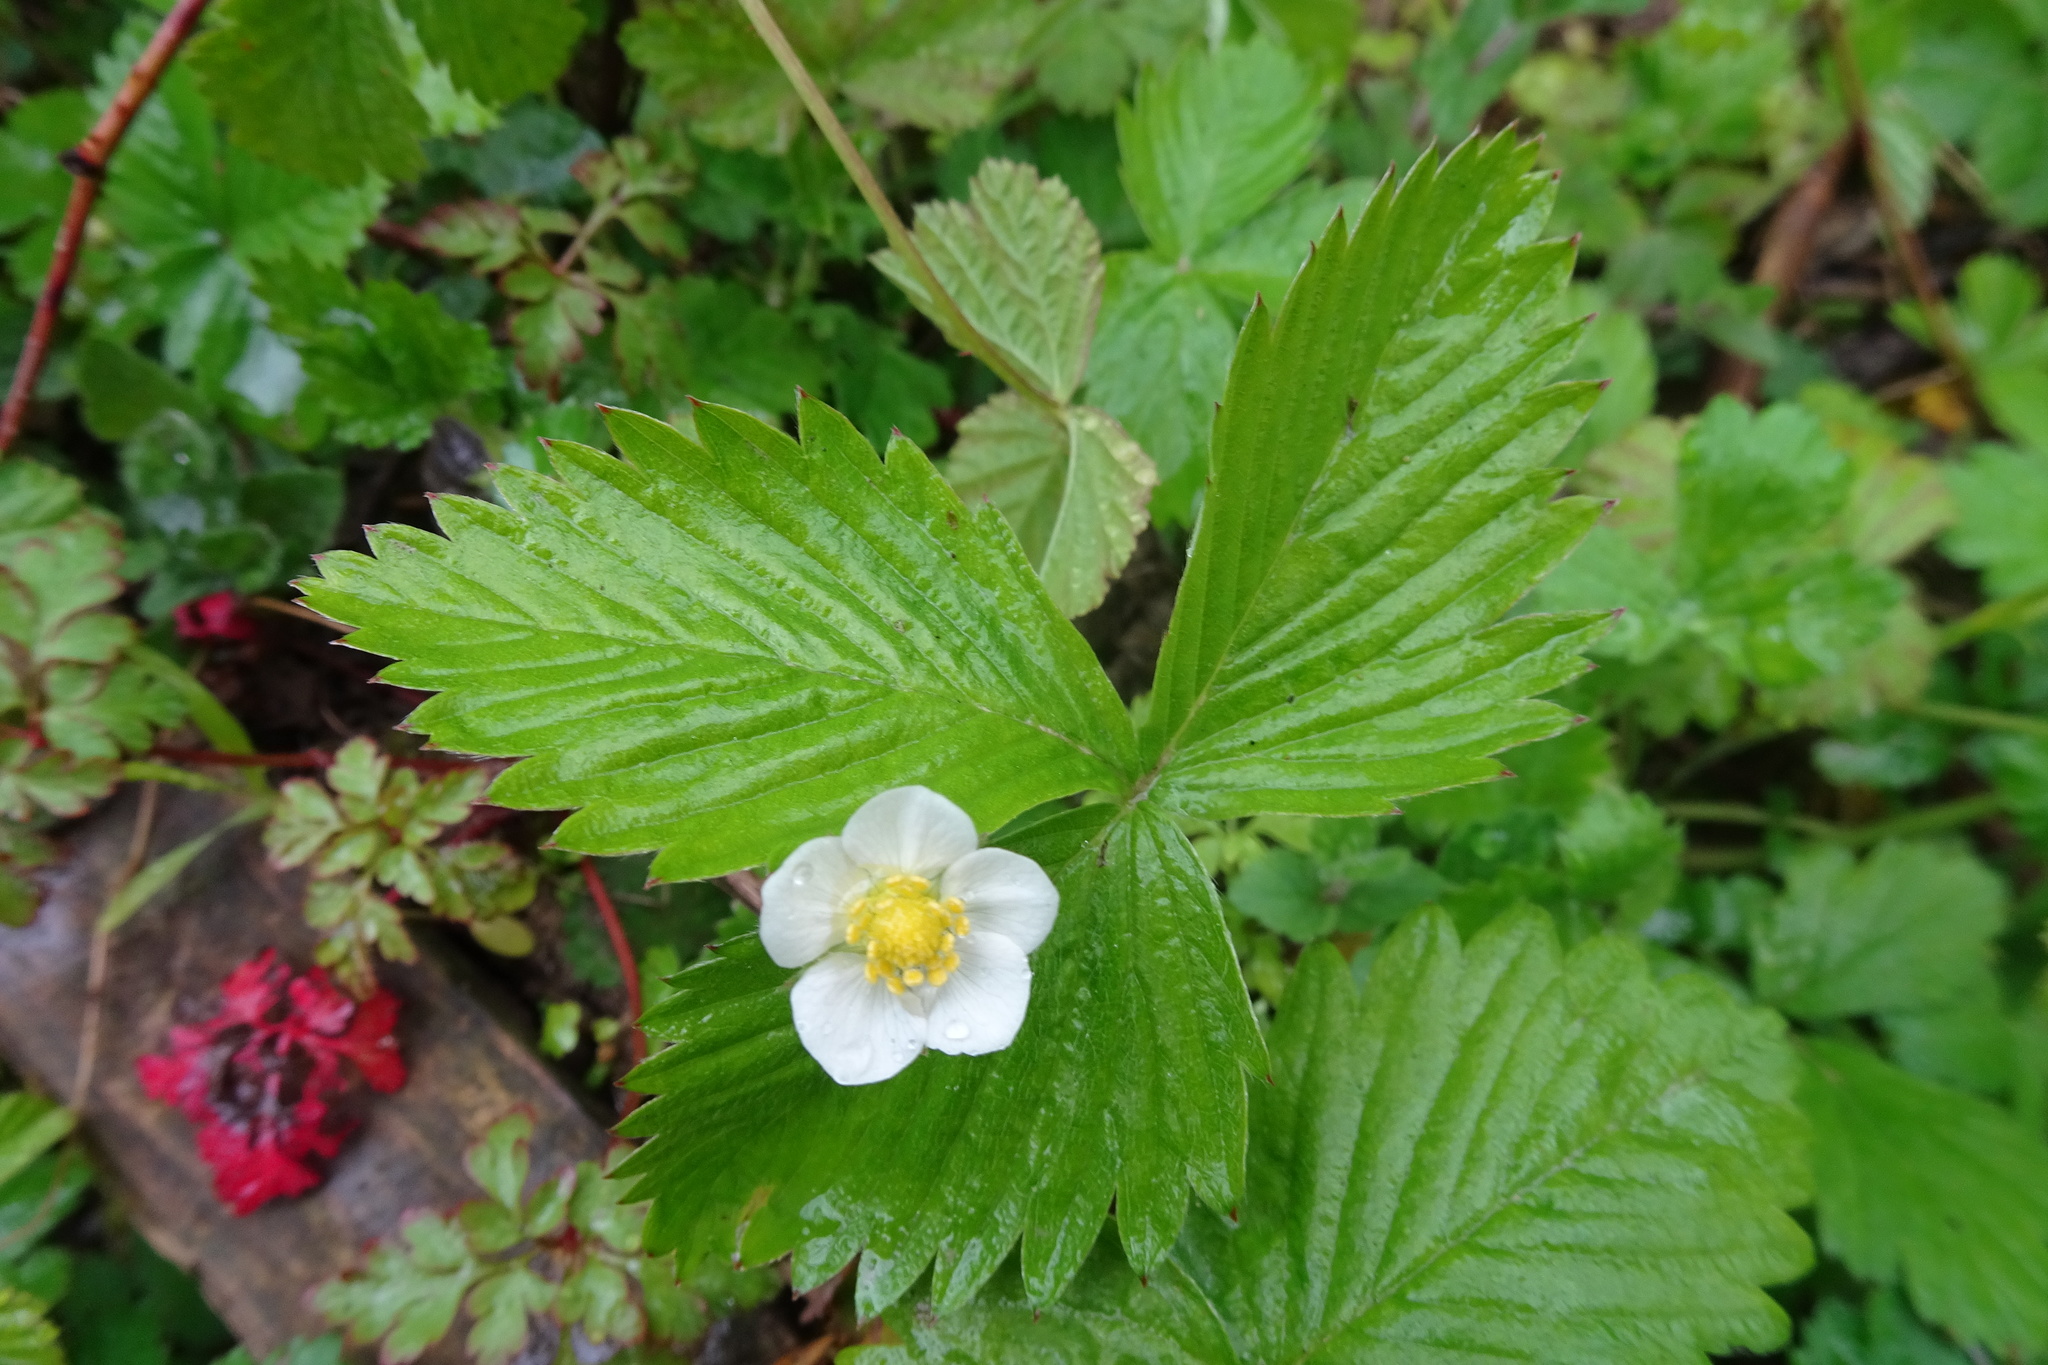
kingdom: Plantae
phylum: Tracheophyta
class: Magnoliopsida
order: Rosales
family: Rosaceae
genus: Fragaria
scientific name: Fragaria vesca
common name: Wild strawberry
